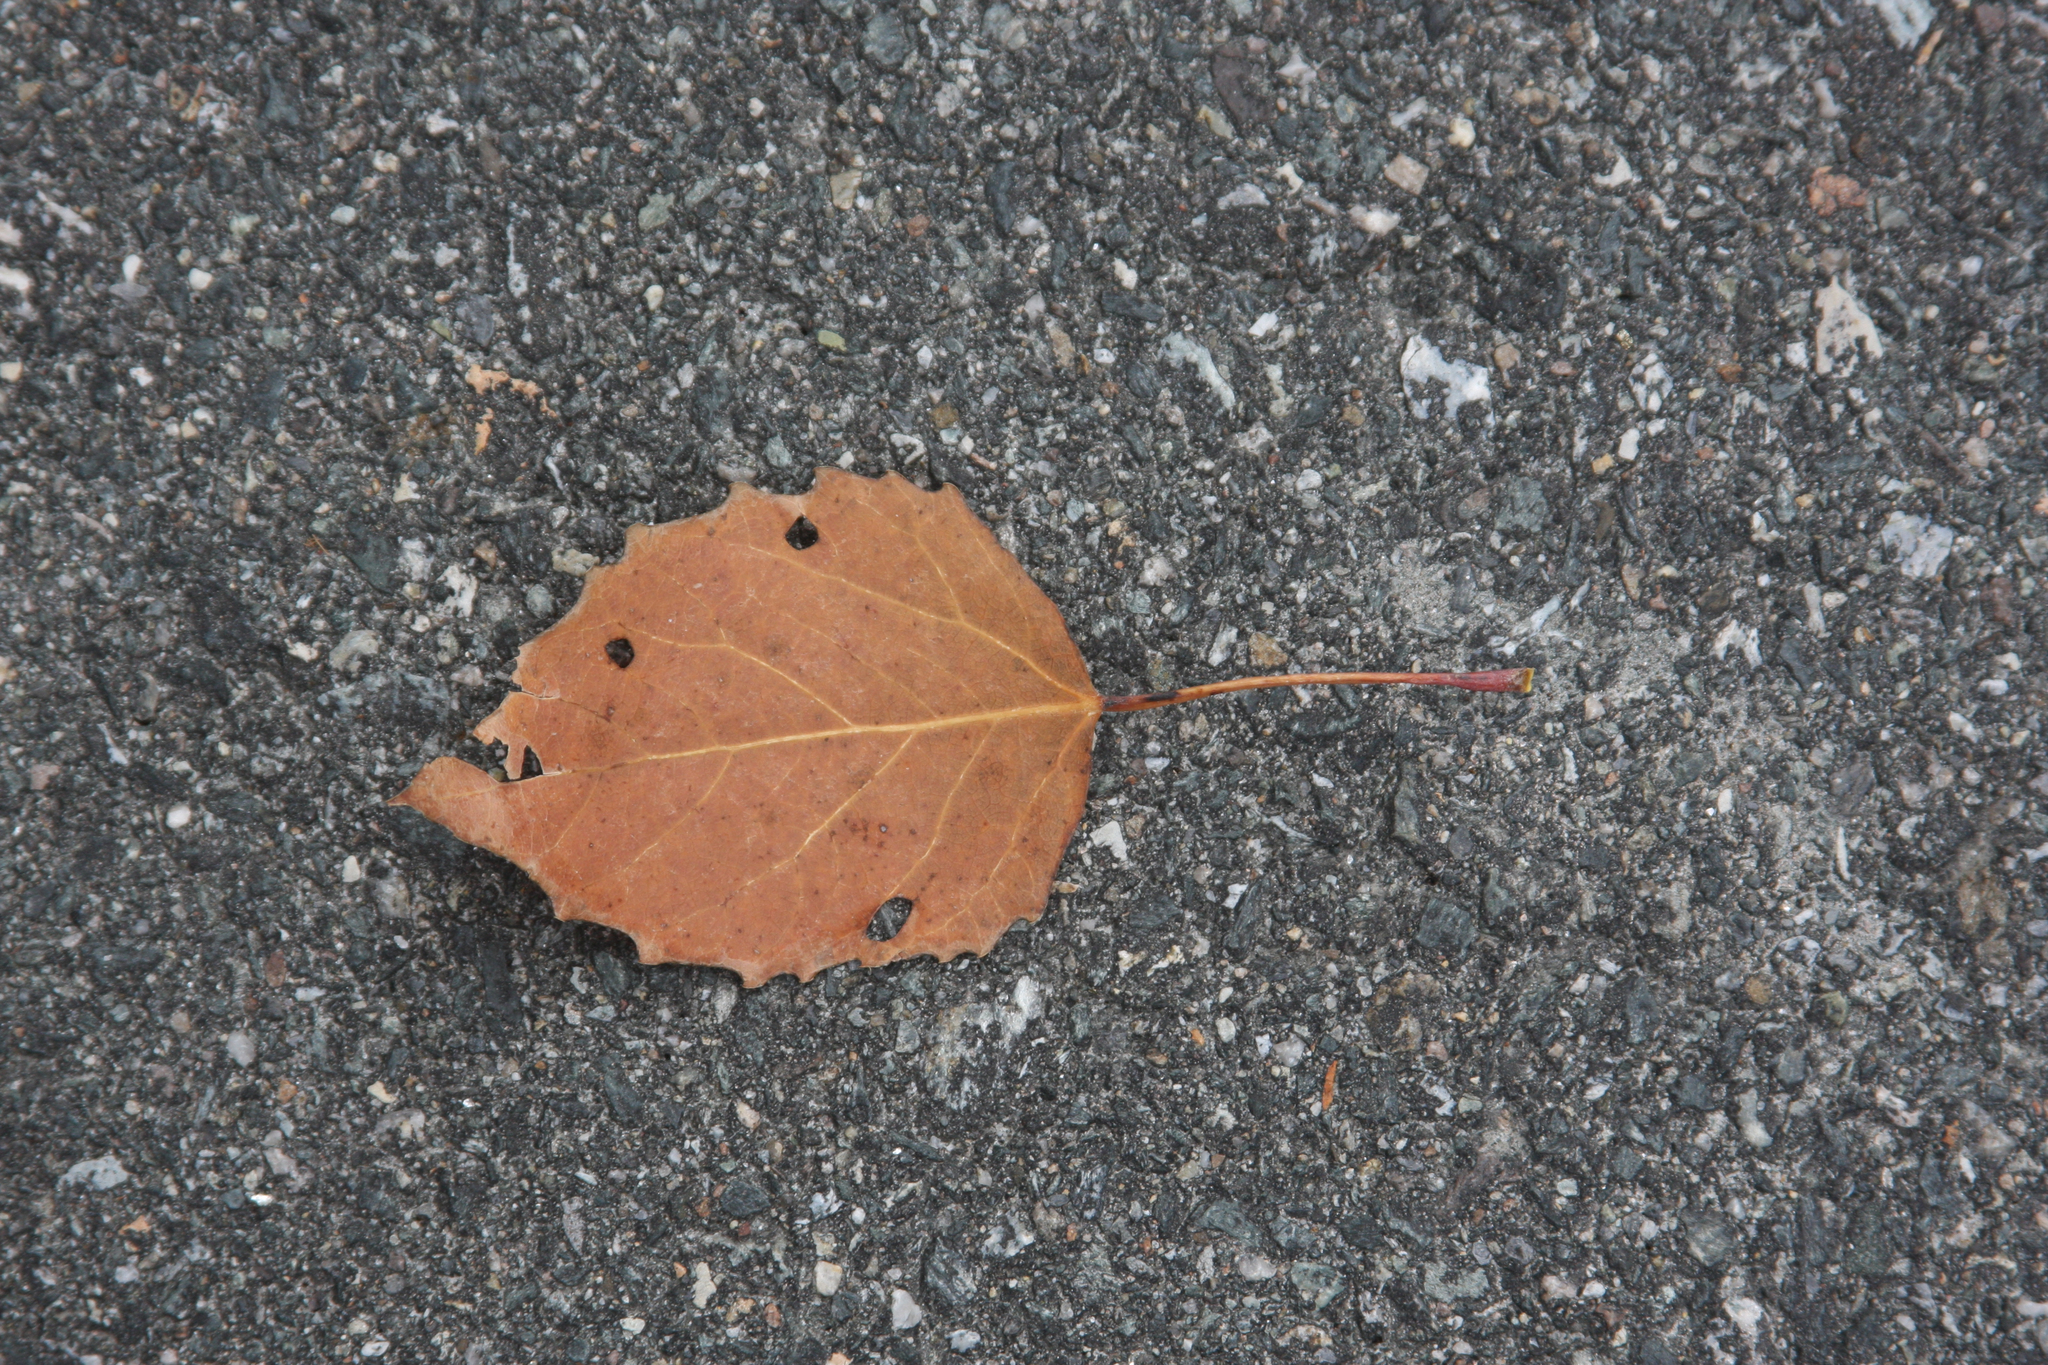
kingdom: Plantae
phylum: Tracheophyta
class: Magnoliopsida
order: Malpighiales
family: Salicaceae
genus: Populus
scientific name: Populus grandidentata
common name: Bigtooth aspen
